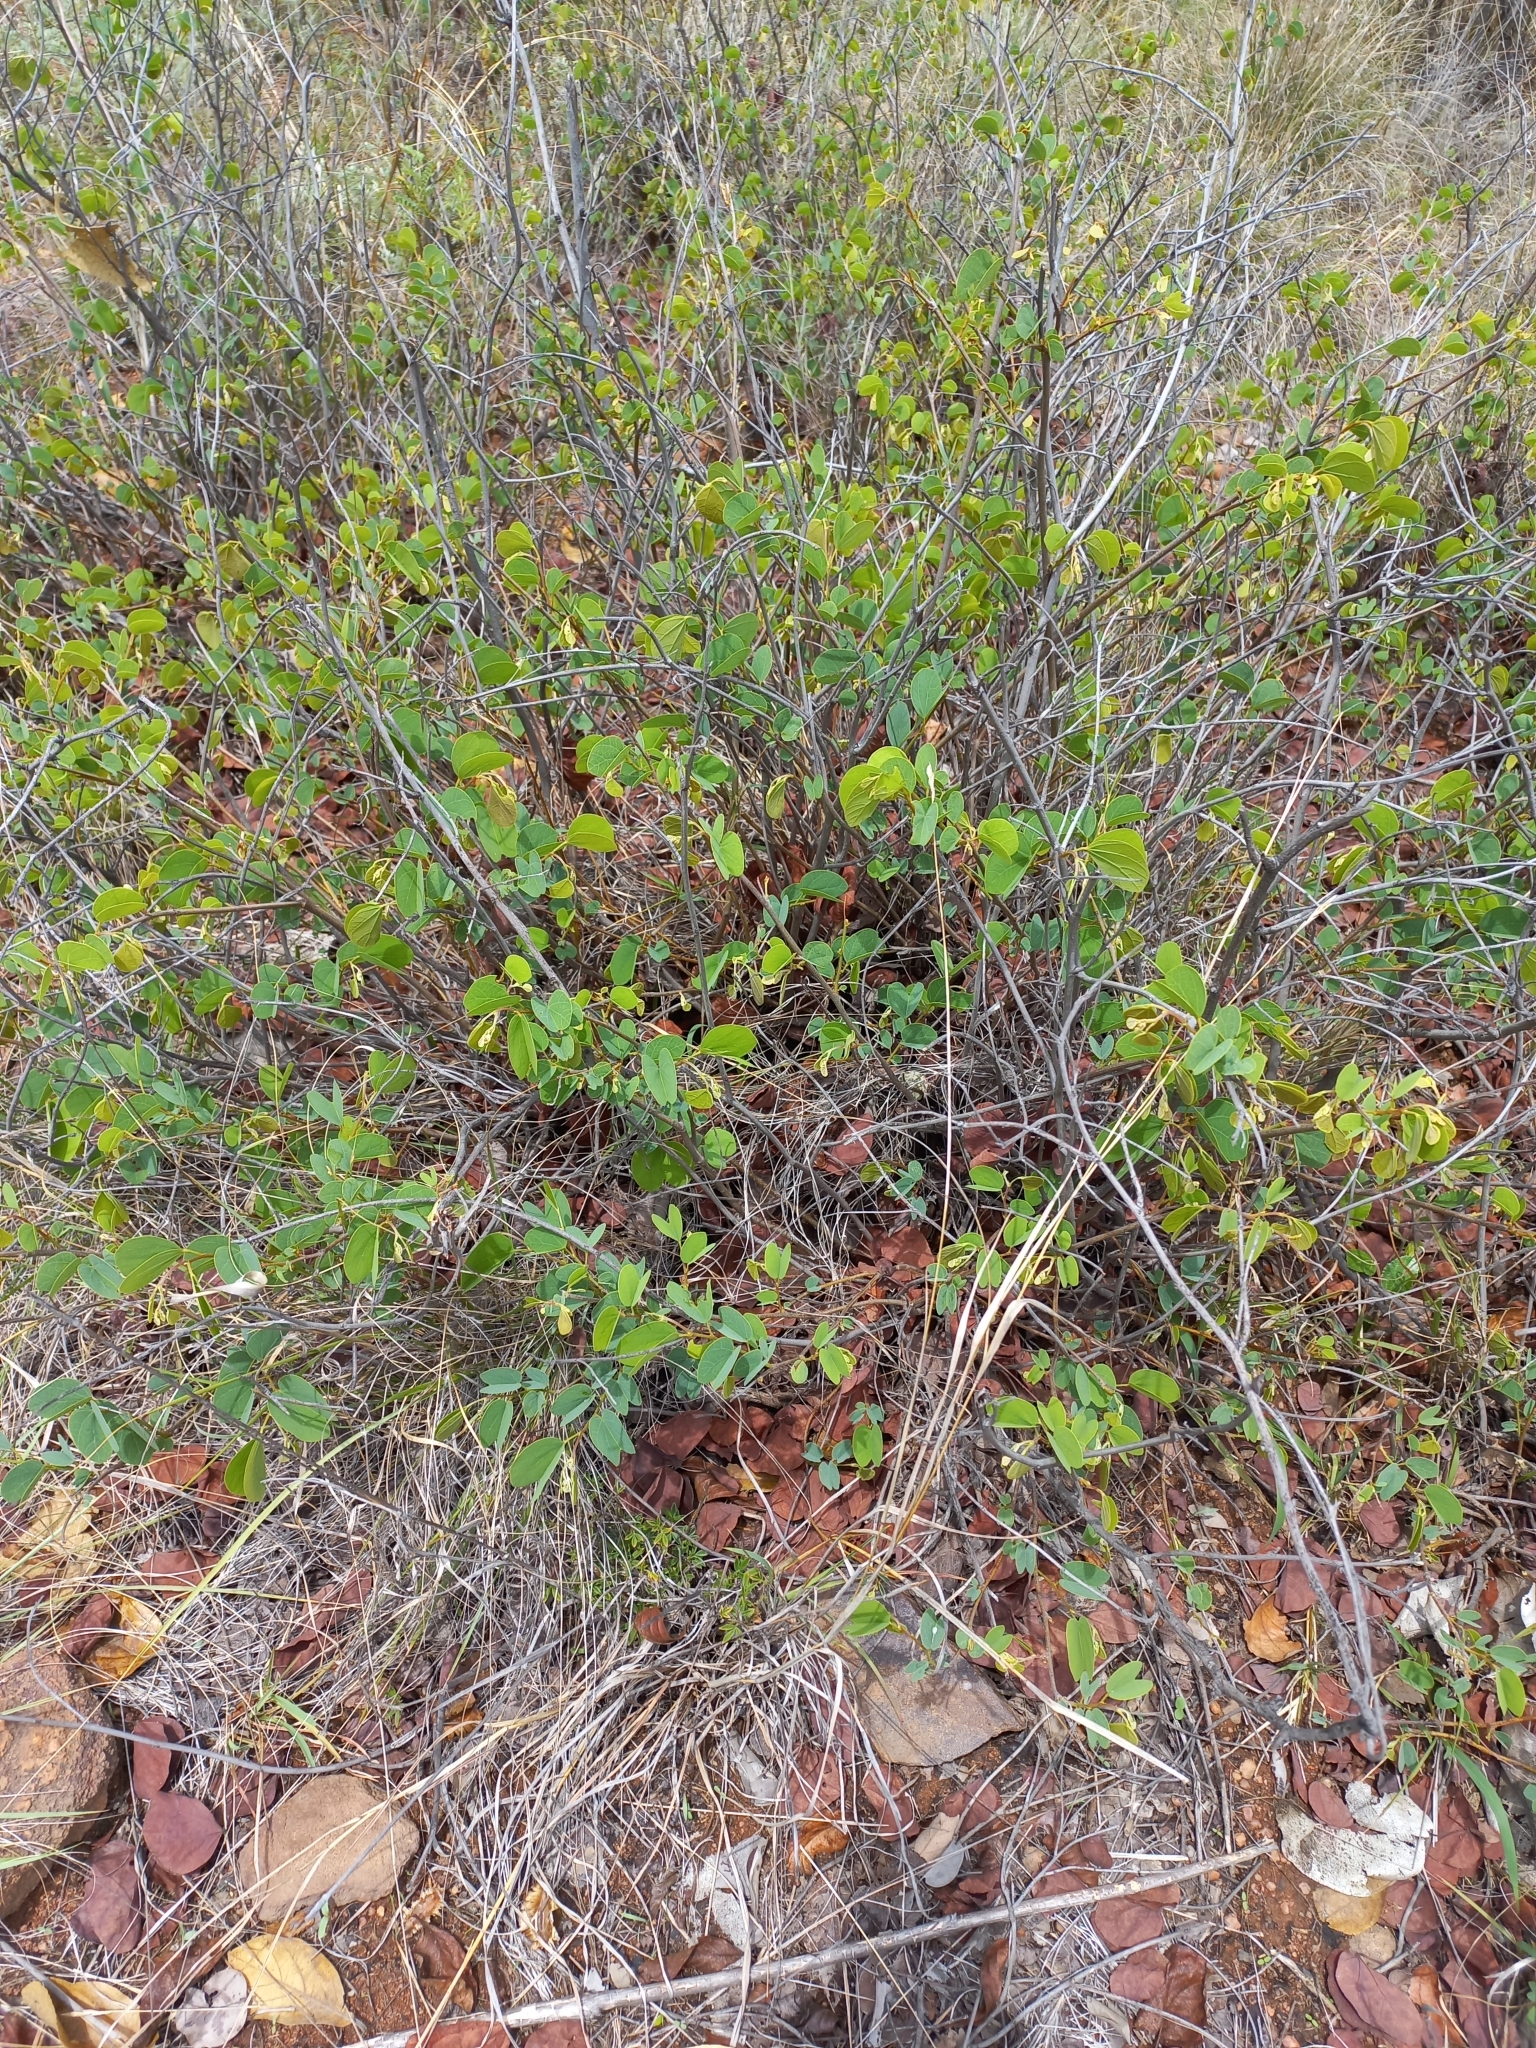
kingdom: Plantae
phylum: Tracheophyta
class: Magnoliopsida
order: Fabales
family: Fabaceae
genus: Bauhinia
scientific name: Bauhinia galpinii
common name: African plume
